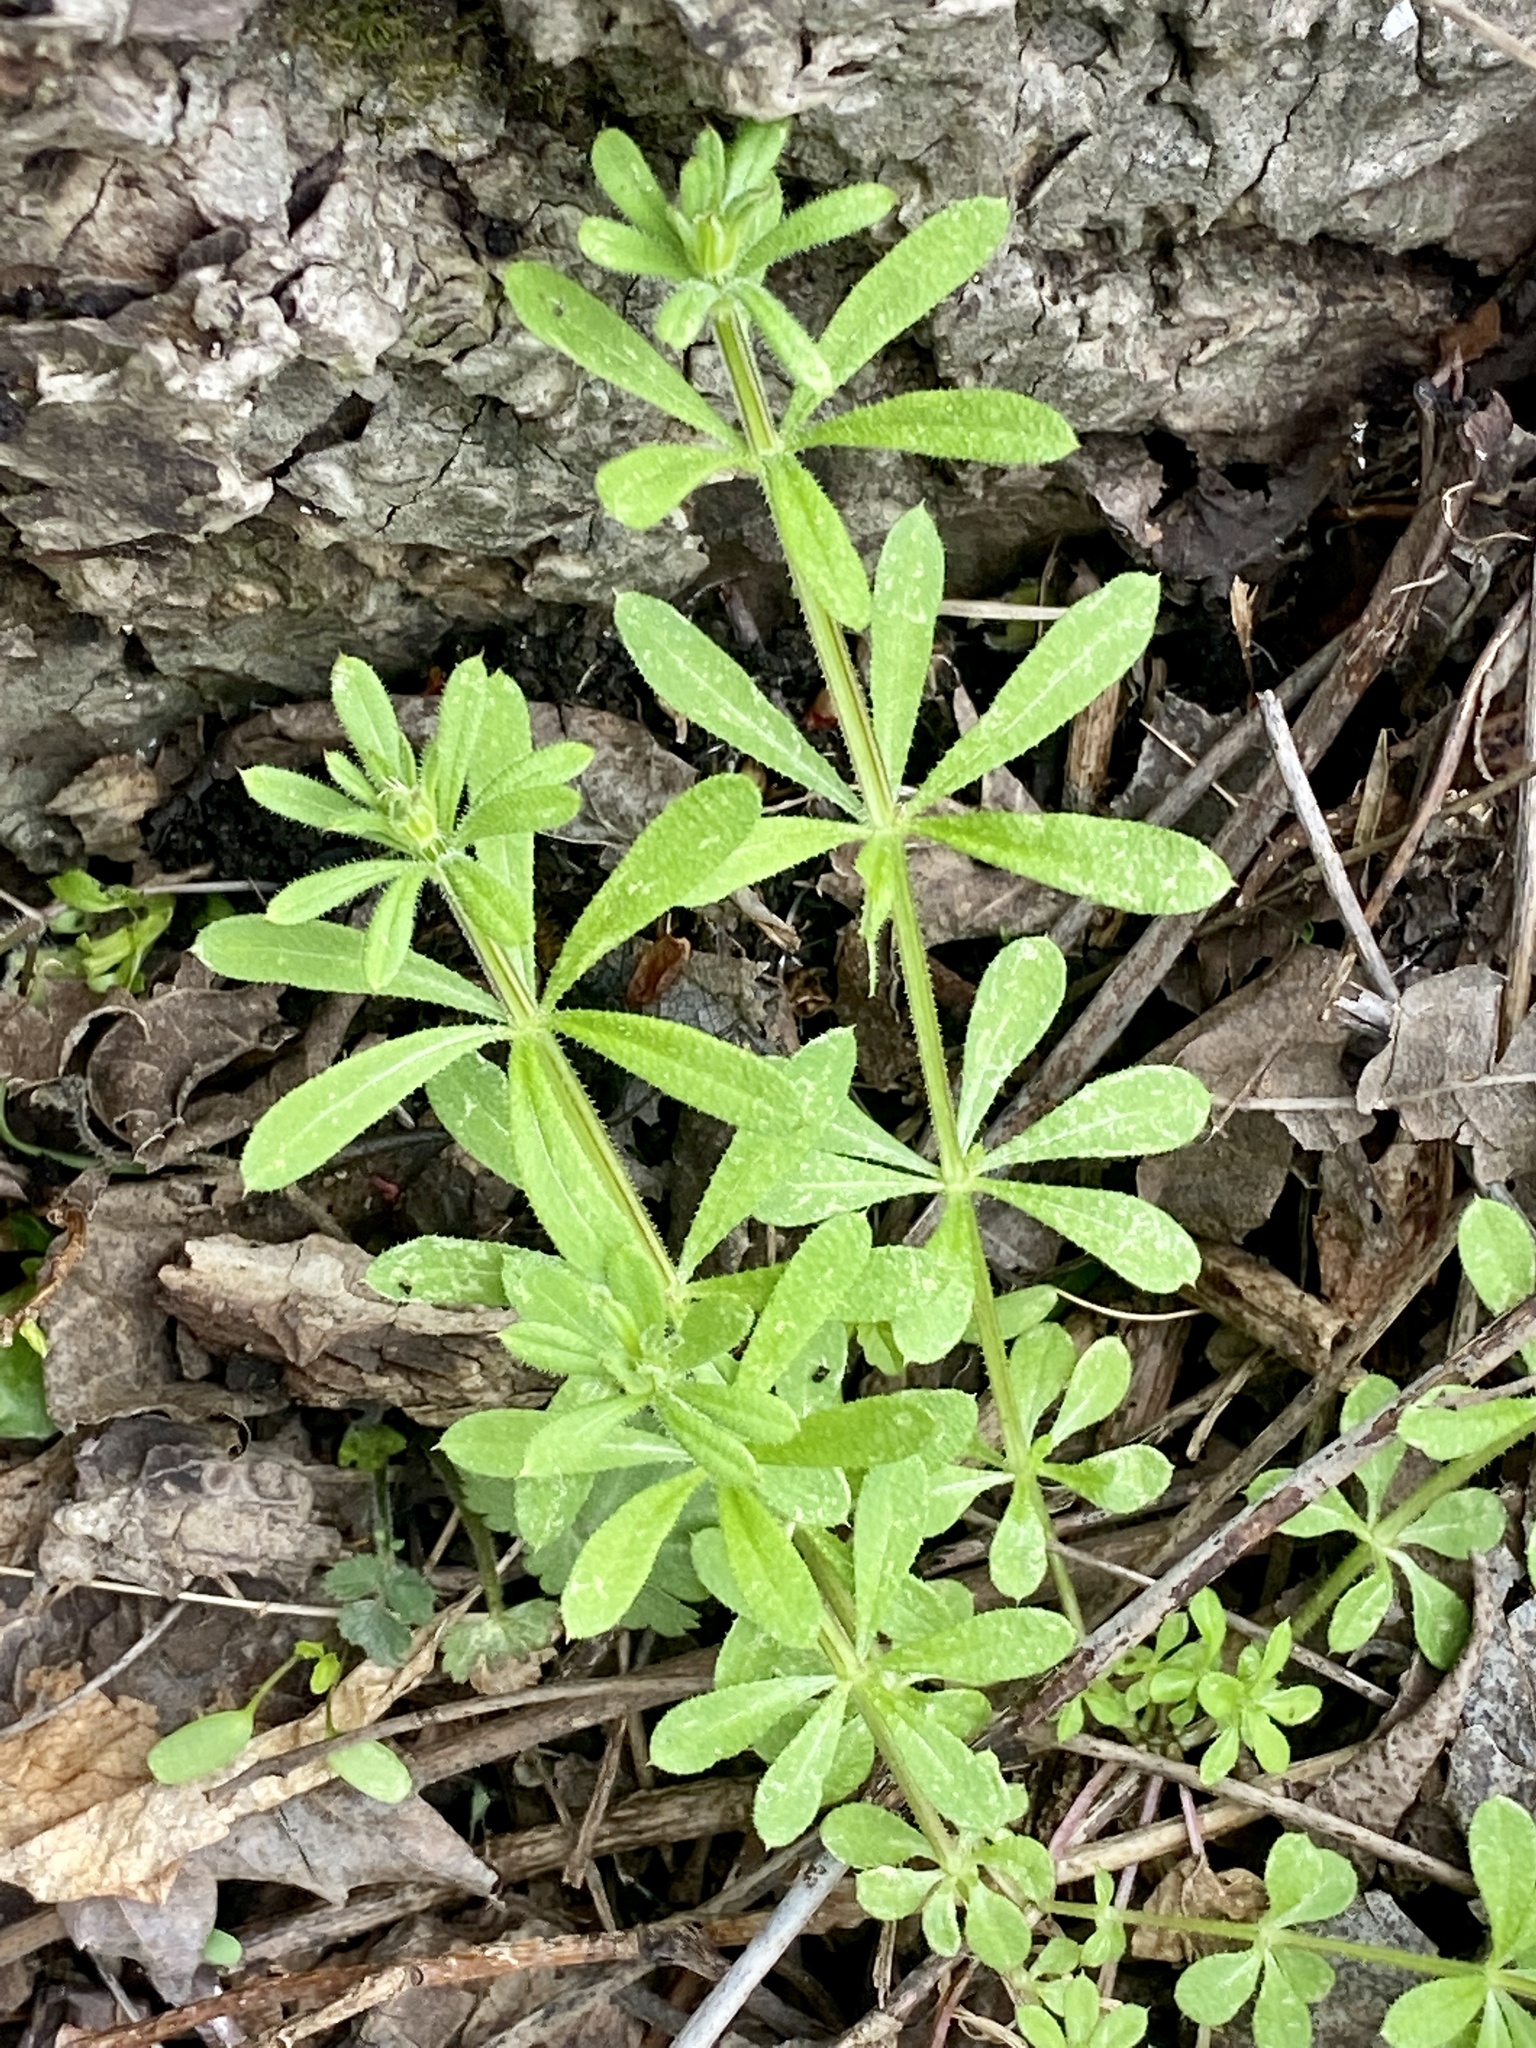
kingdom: Plantae
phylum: Tracheophyta
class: Magnoliopsida
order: Gentianales
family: Rubiaceae
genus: Galium
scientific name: Galium aparine
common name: Cleavers
